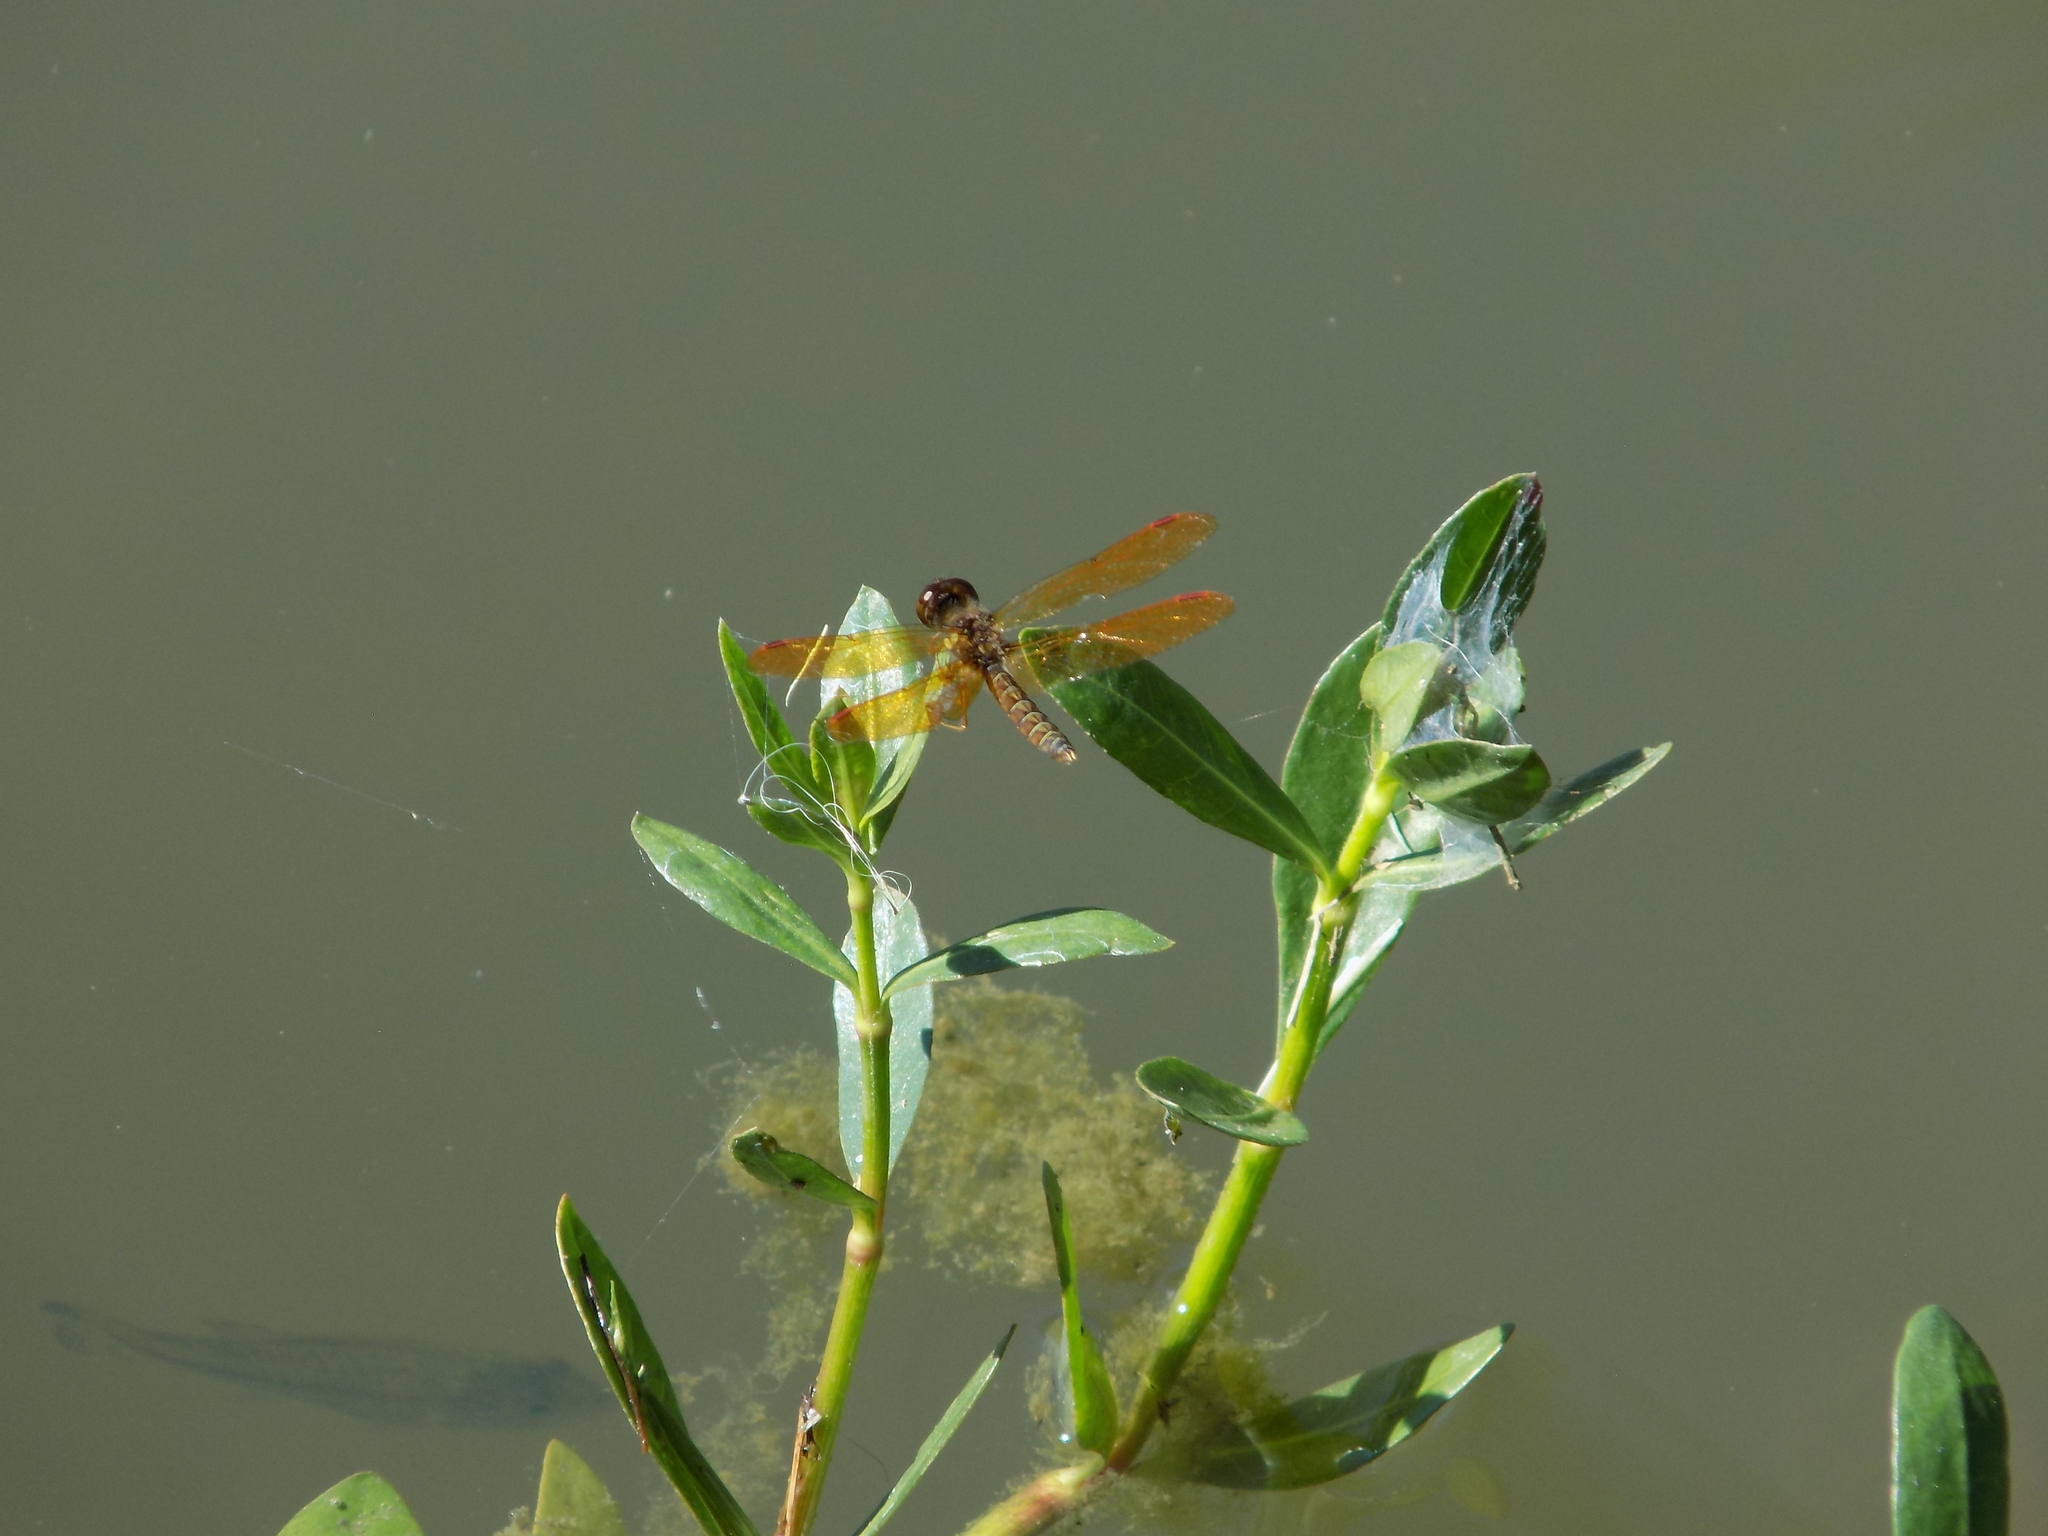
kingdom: Animalia
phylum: Arthropoda
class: Insecta
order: Odonata
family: Libellulidae
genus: Perithemis
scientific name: Perithemis tenera
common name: Eastern amberwing
